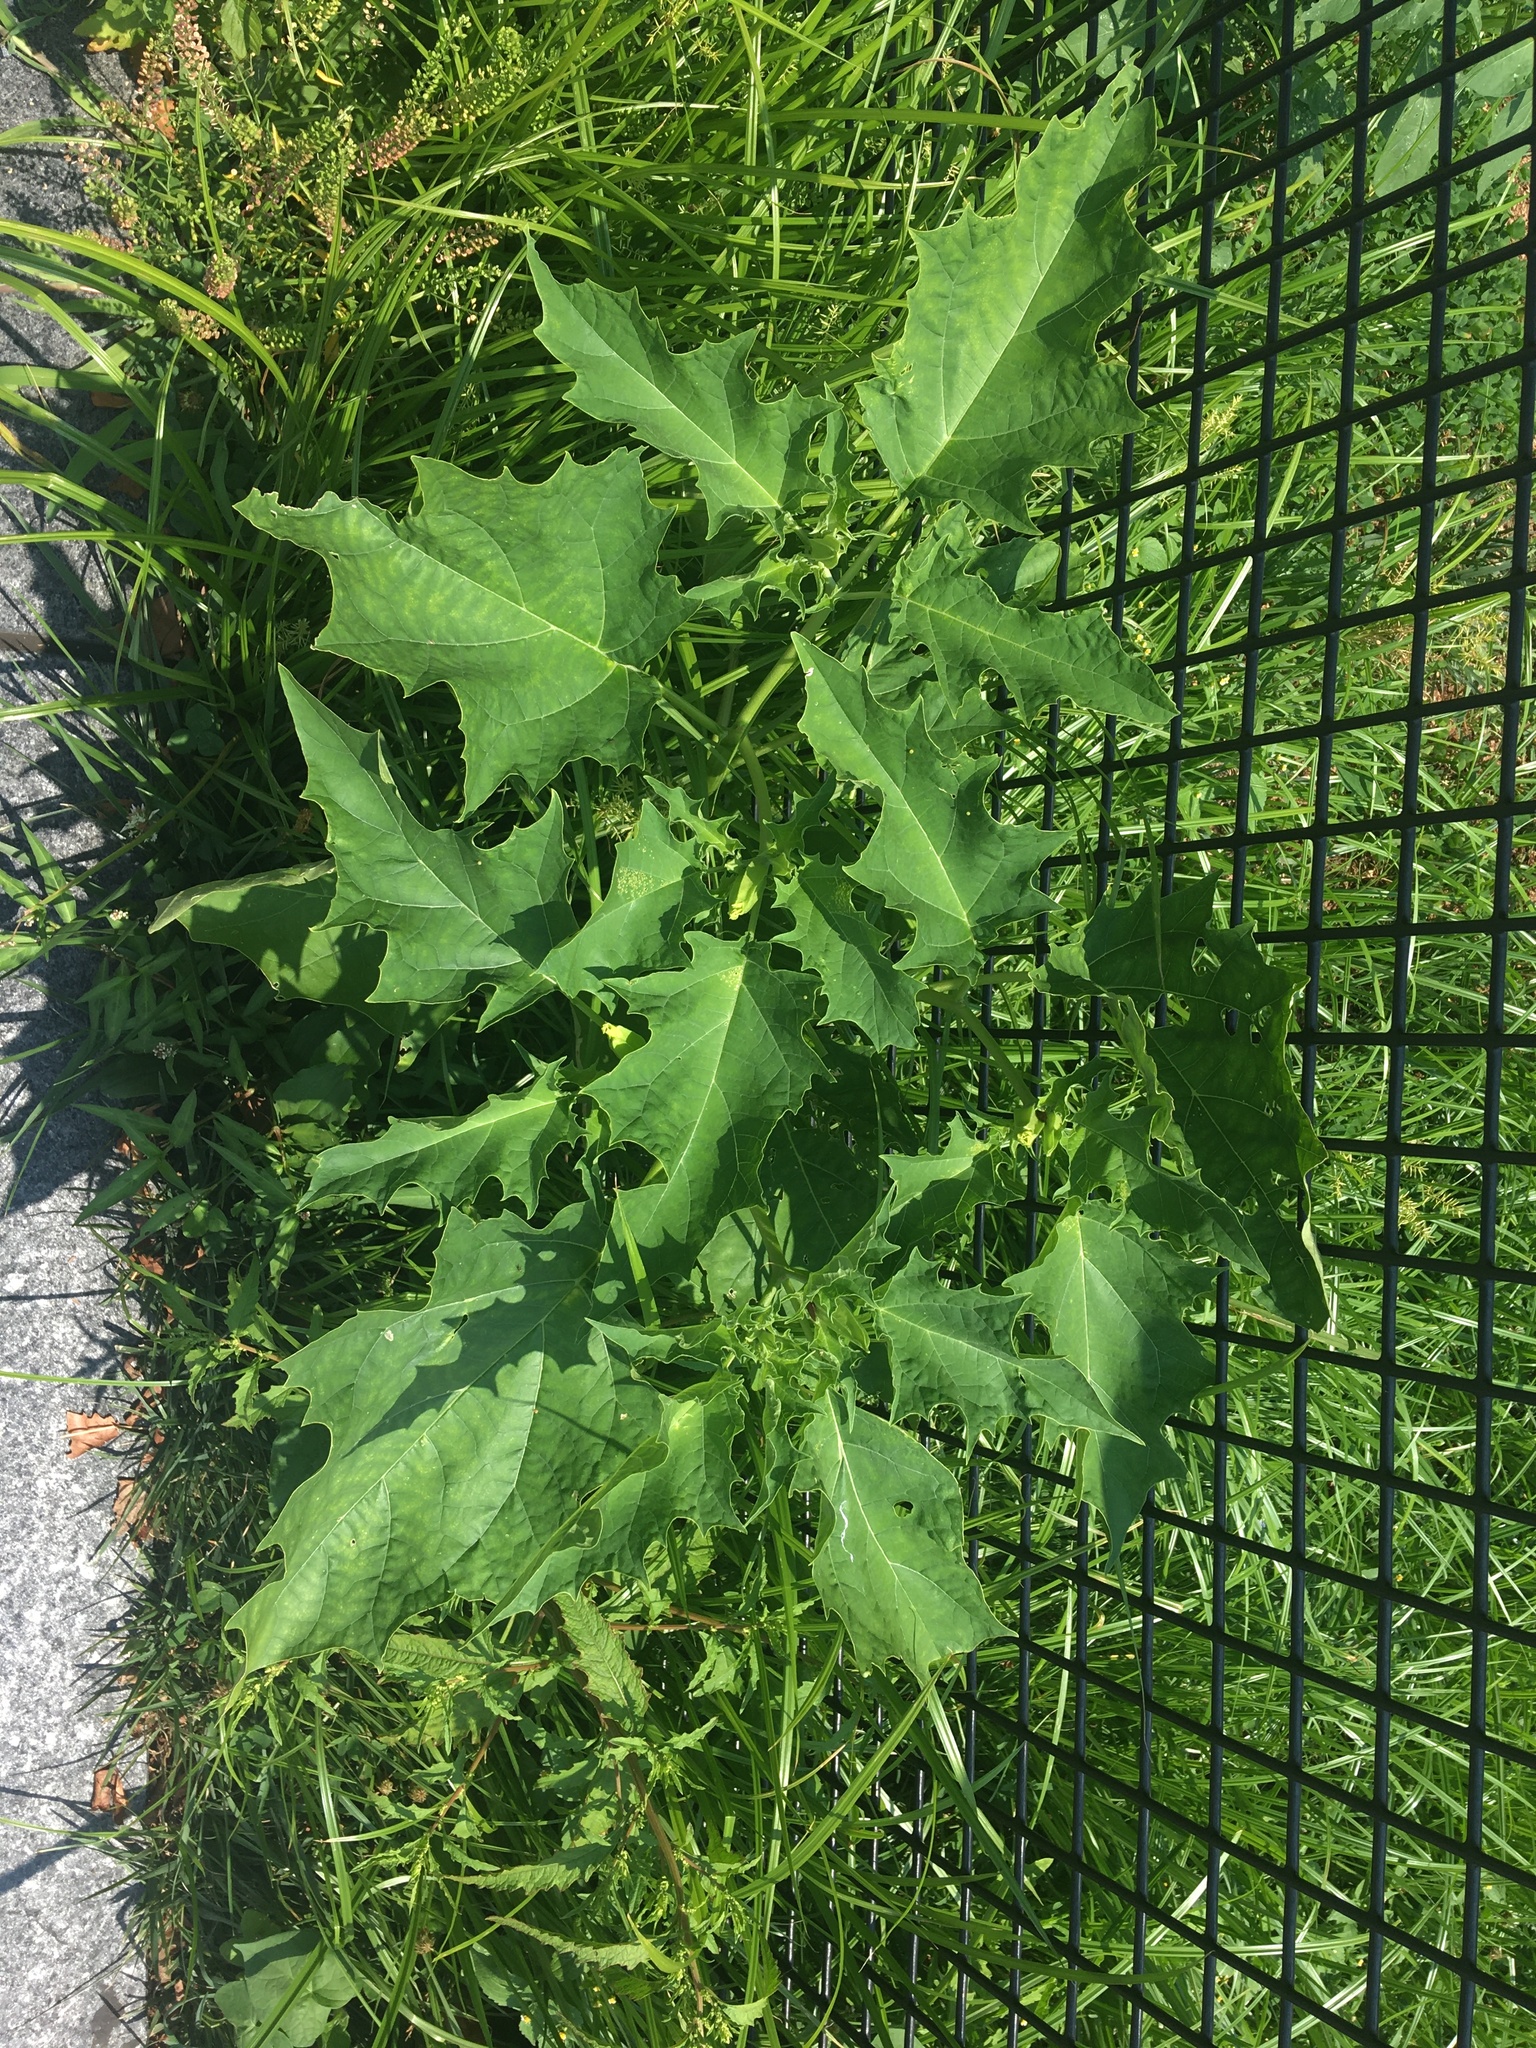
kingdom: Plantae
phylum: Tracheophyta
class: Magnoliopsida
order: Solanales
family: Solanaceae
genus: Datura
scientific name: Datura stramonium
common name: Thorn-apple
